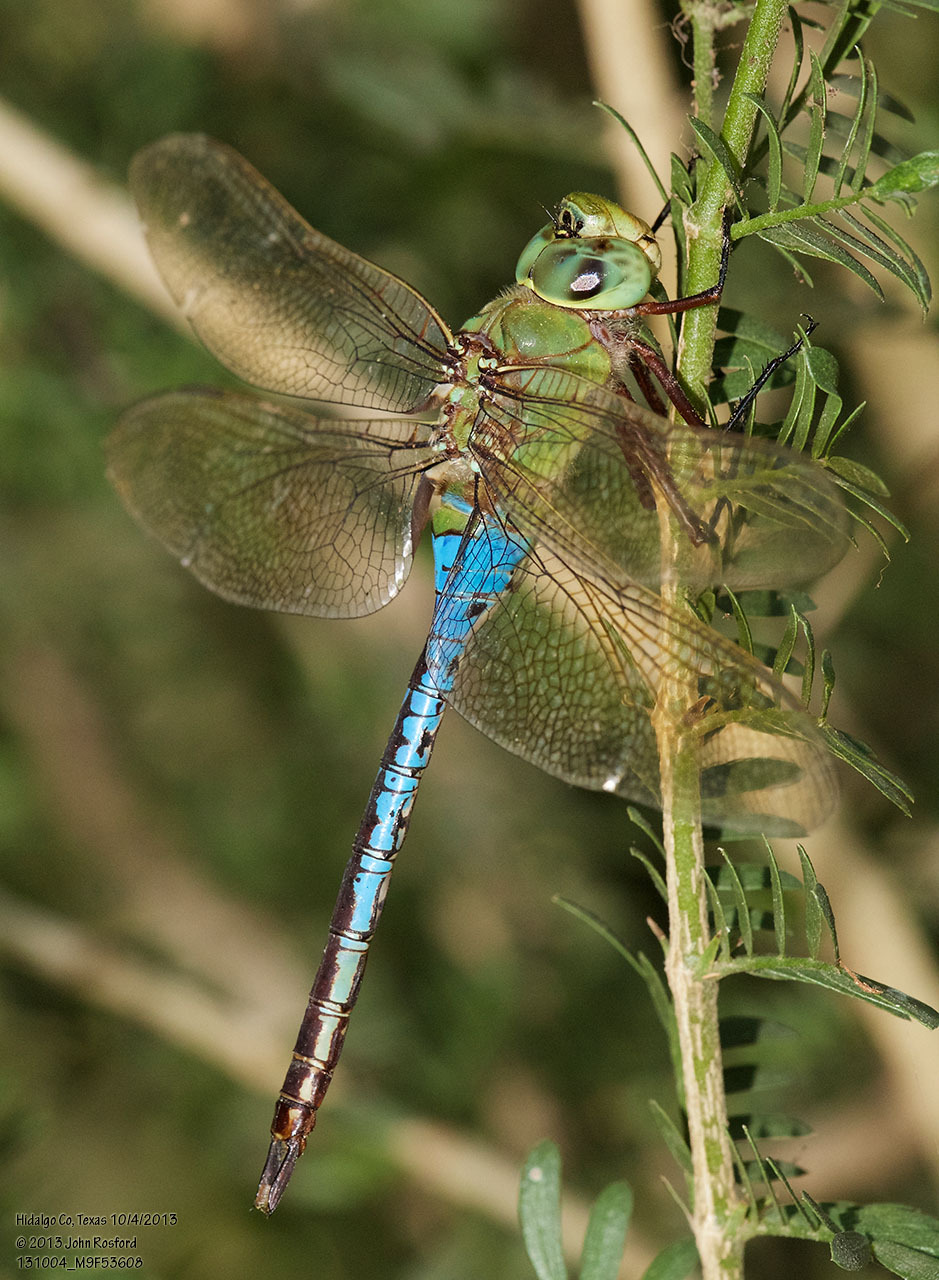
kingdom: Animalia
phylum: Arthropoda
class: Insecta
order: Odonata
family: Aeshnidae
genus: Anax
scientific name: Anax junius
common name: Common green darner
